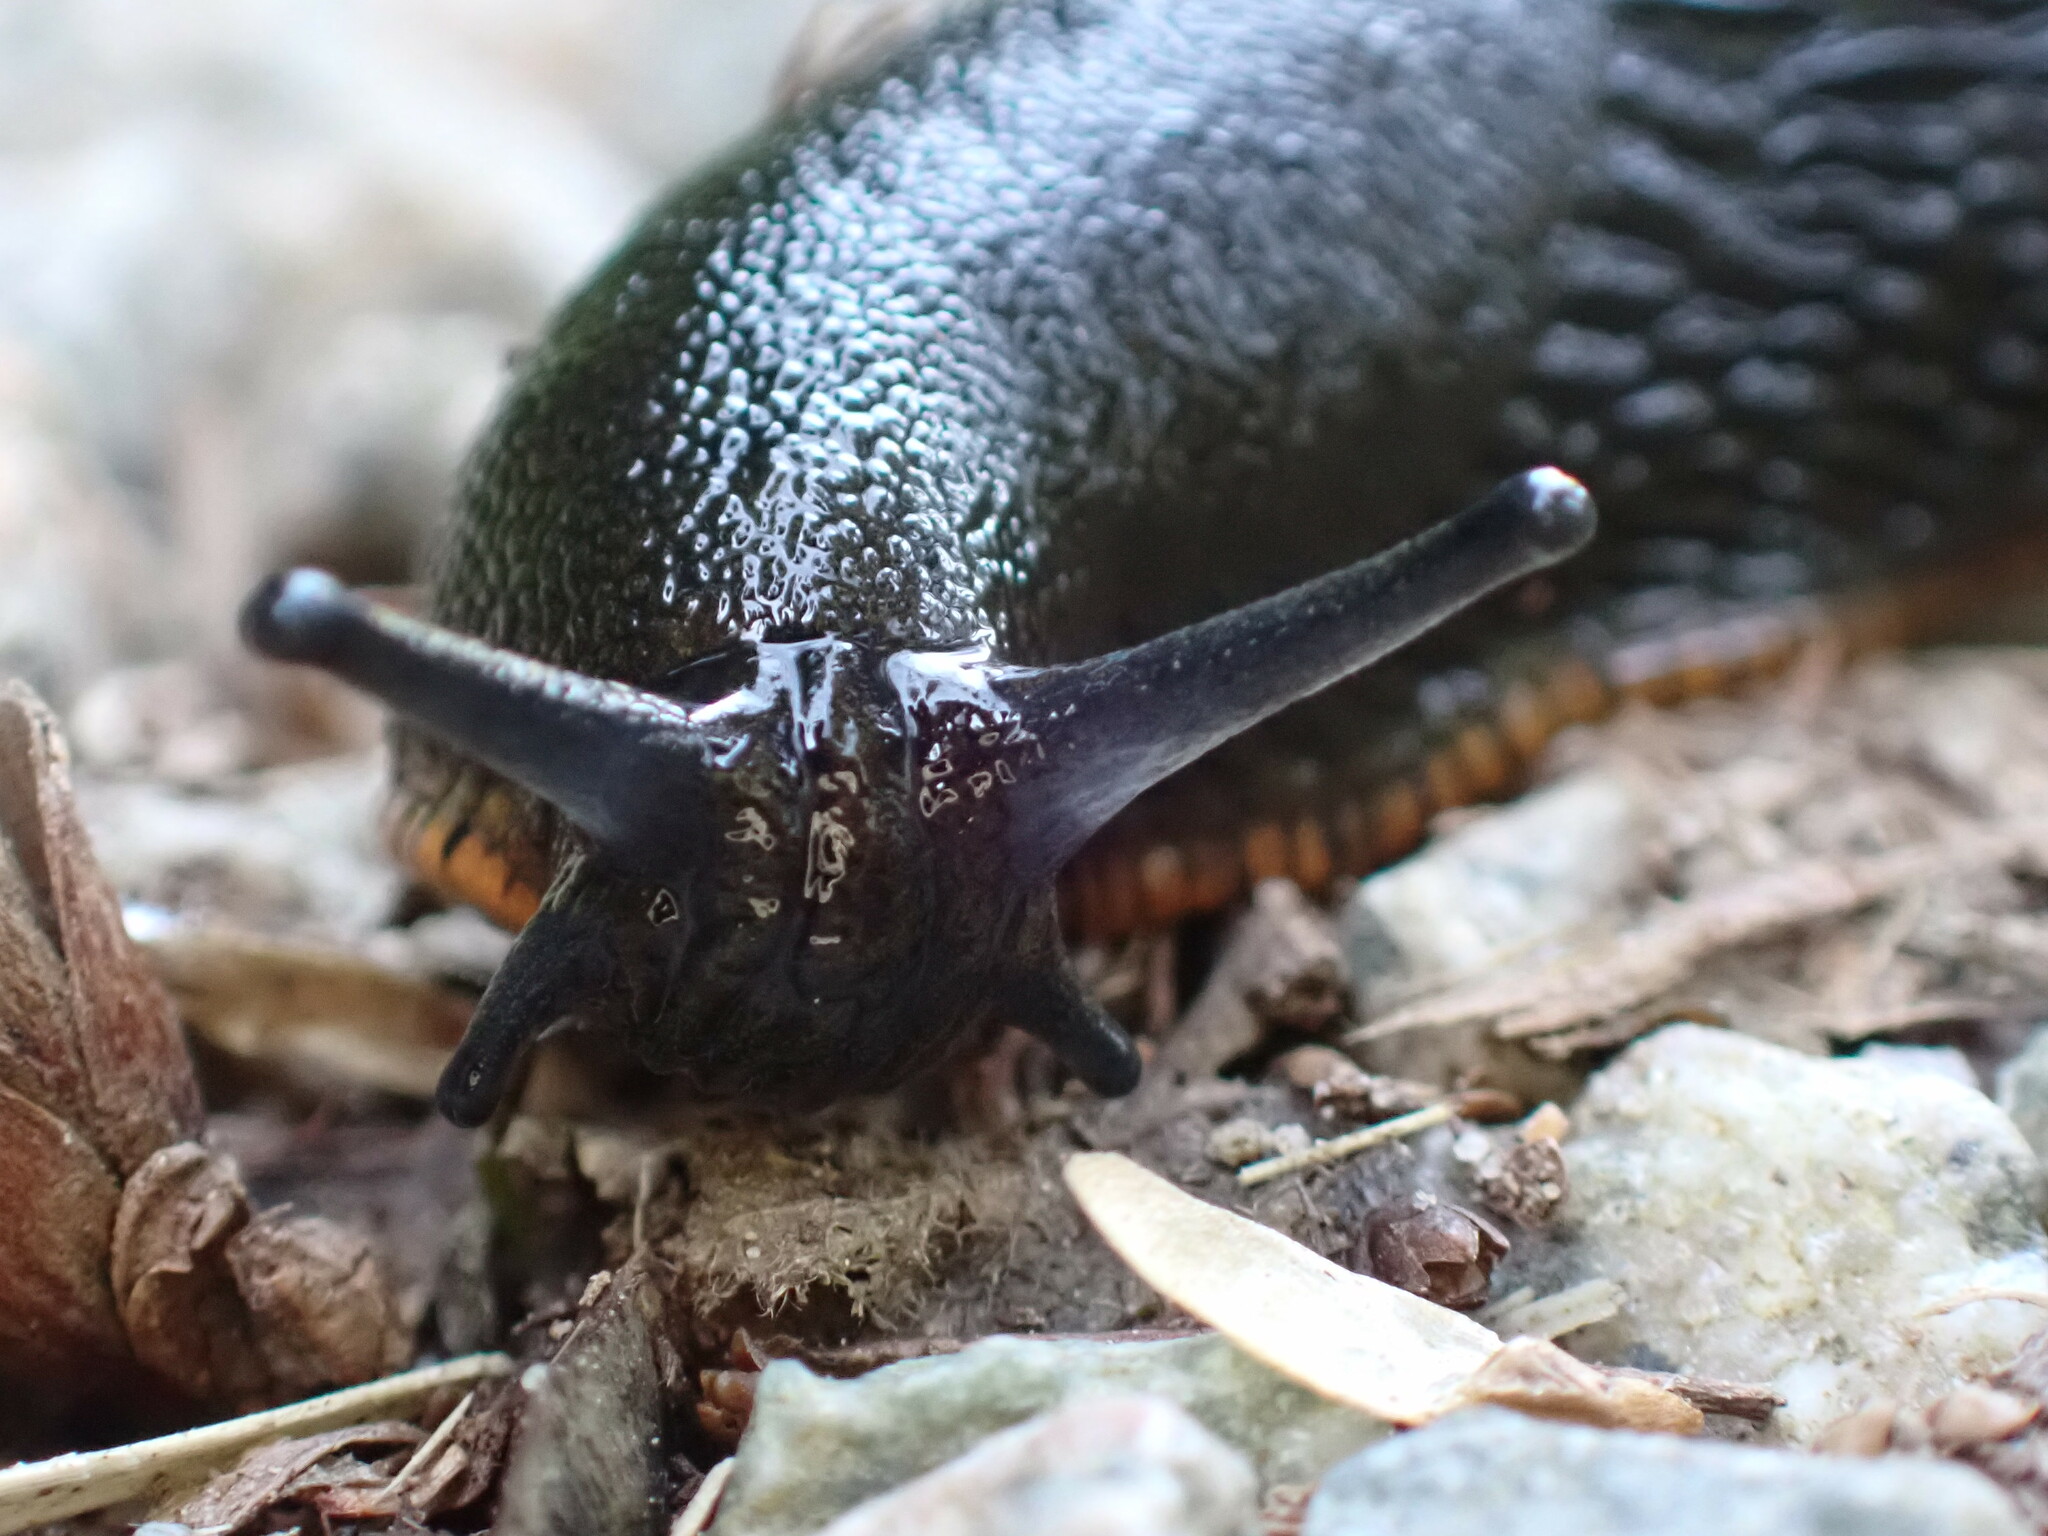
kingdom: Animalia
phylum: Mollusca
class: Gastropoda
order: Stylommatophora
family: Arionidae
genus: Arion
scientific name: Arion
